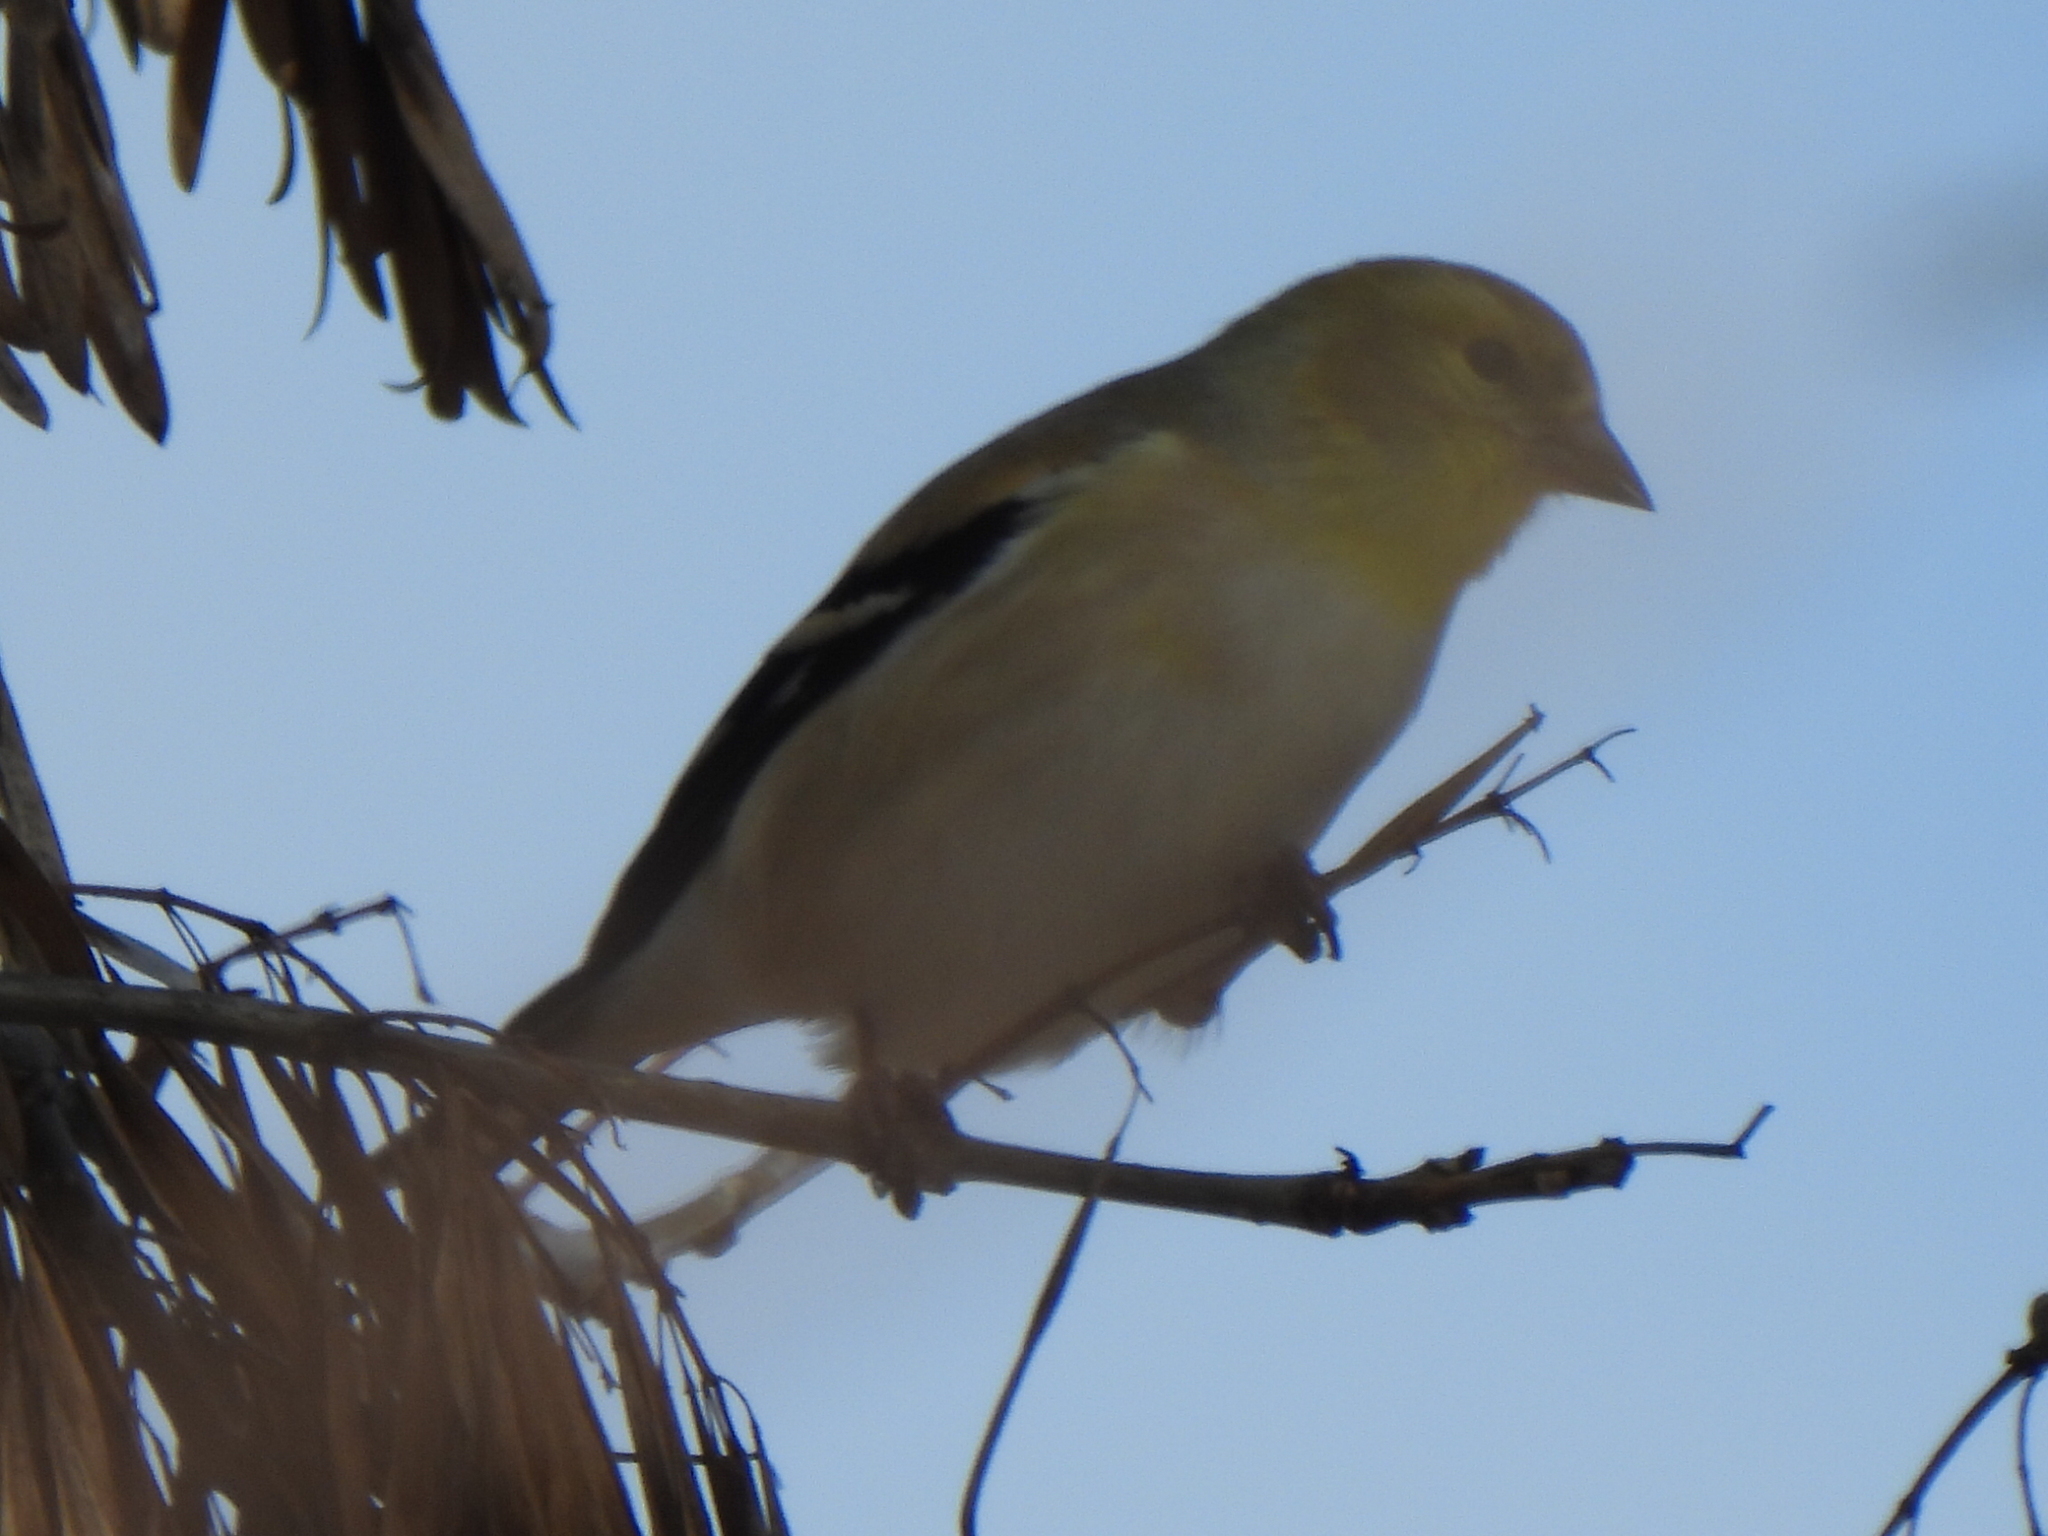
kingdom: Animalia
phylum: Chordata
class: Aves
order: Passeriformes
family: Fringillidae
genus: Spinus
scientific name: Spinus tristis
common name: American goldfinch
